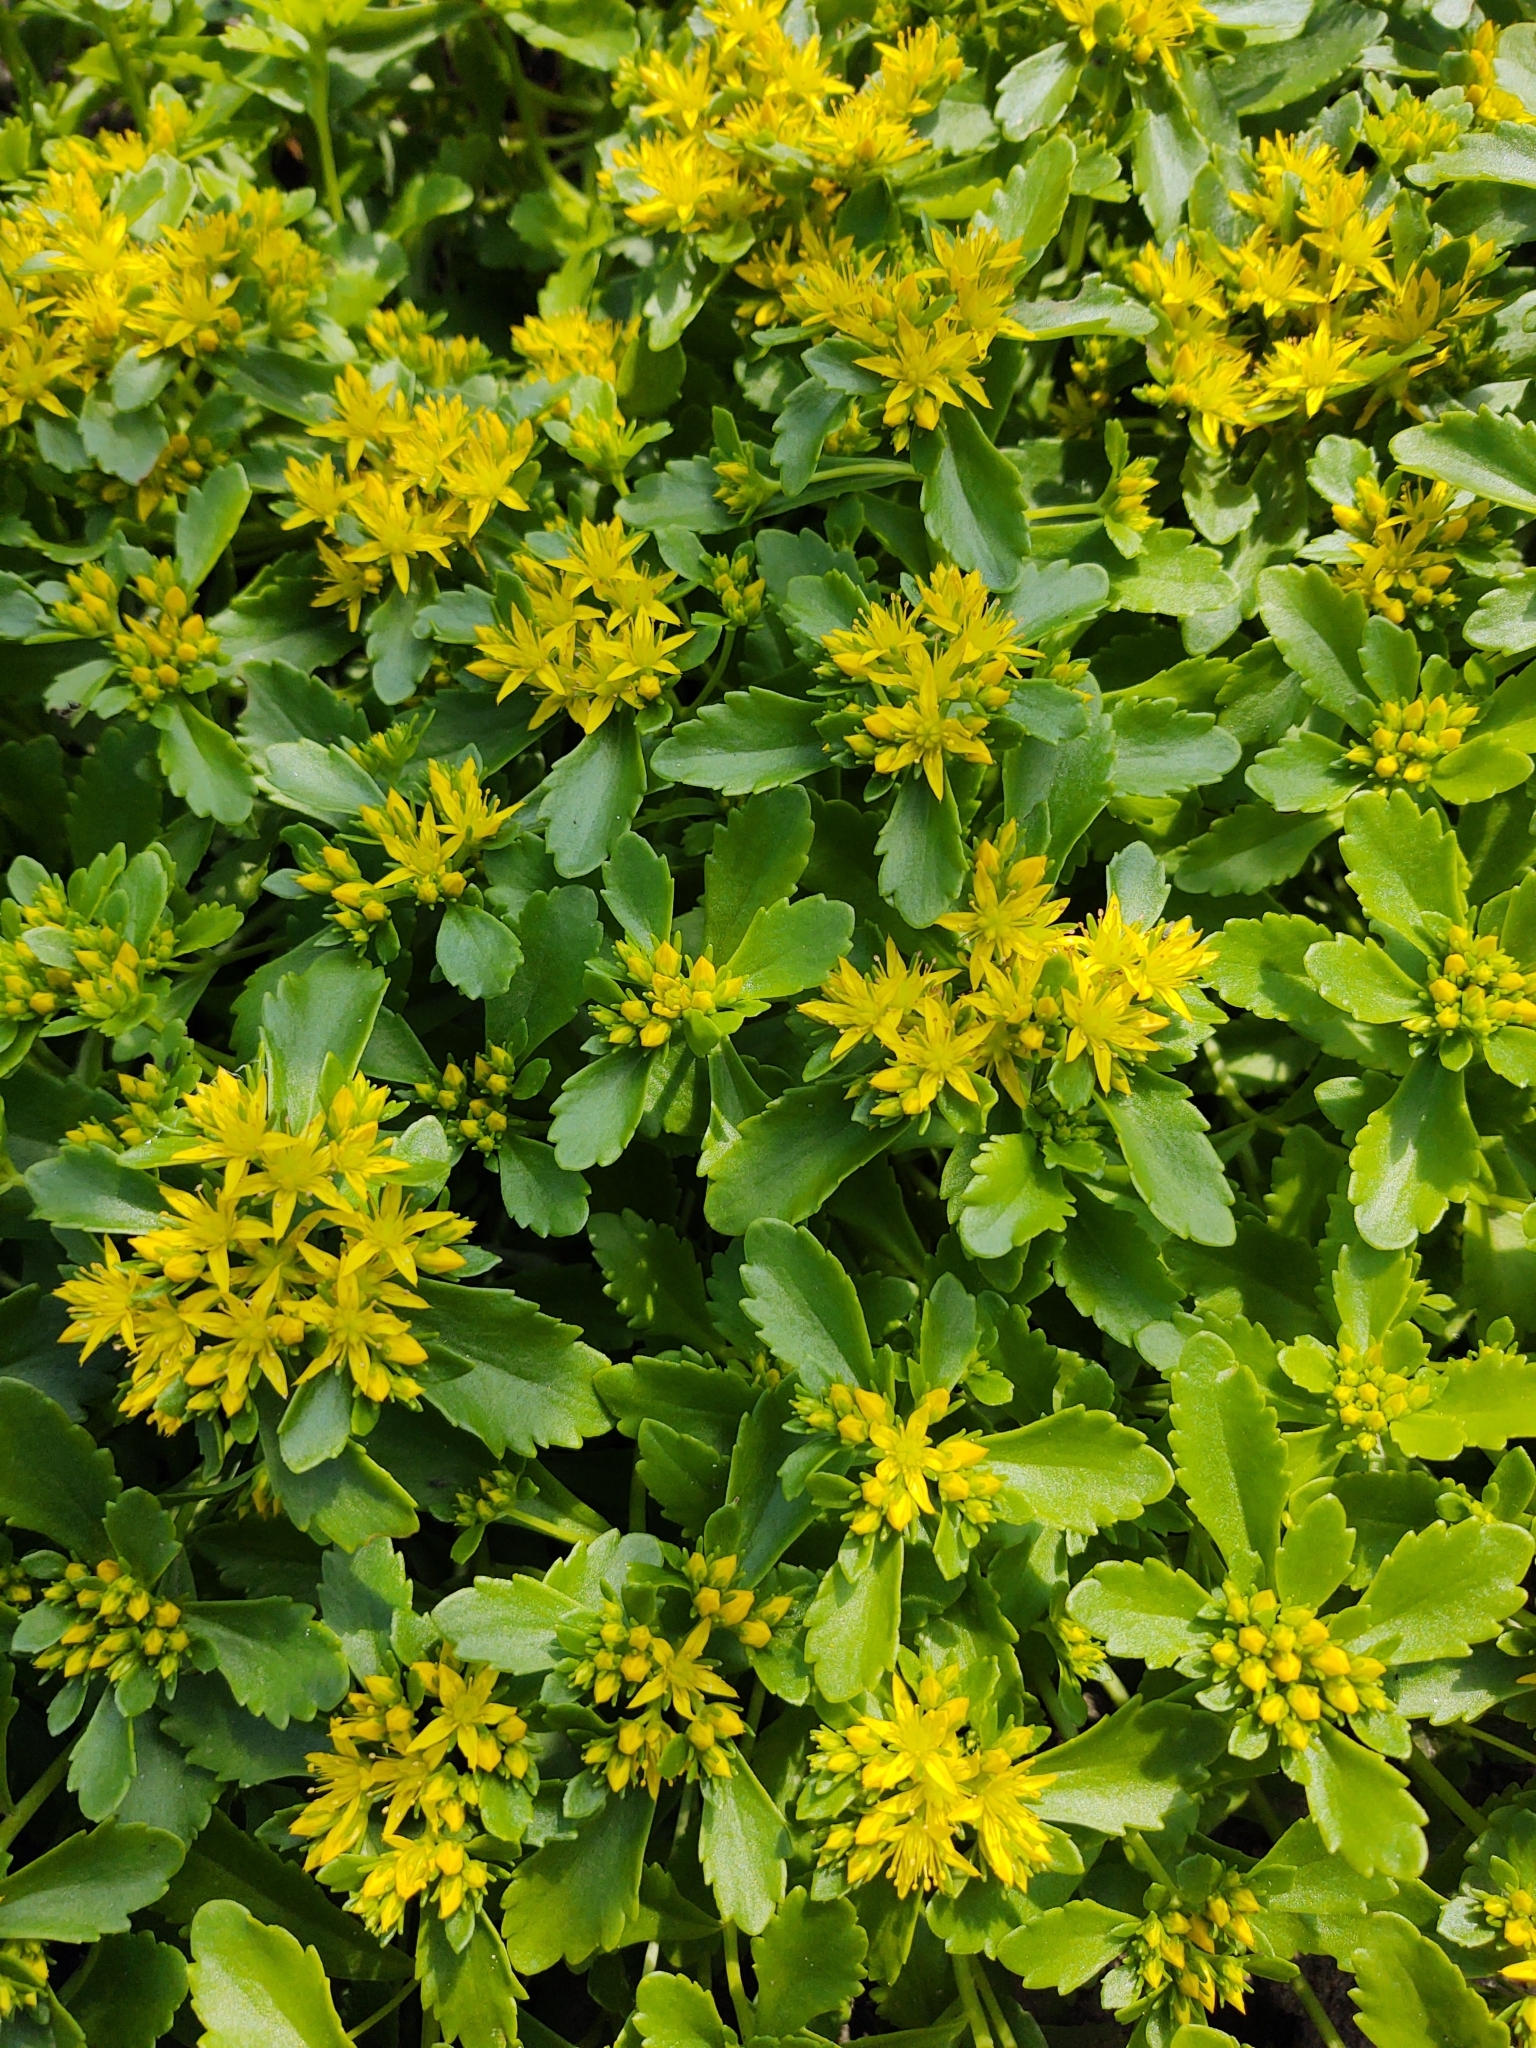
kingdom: Plantae
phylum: Tracheophyta
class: Magnoliopsida
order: Saxifragales
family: Crassulaceae
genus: Phedimus
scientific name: Phedimus ellacombeanus
